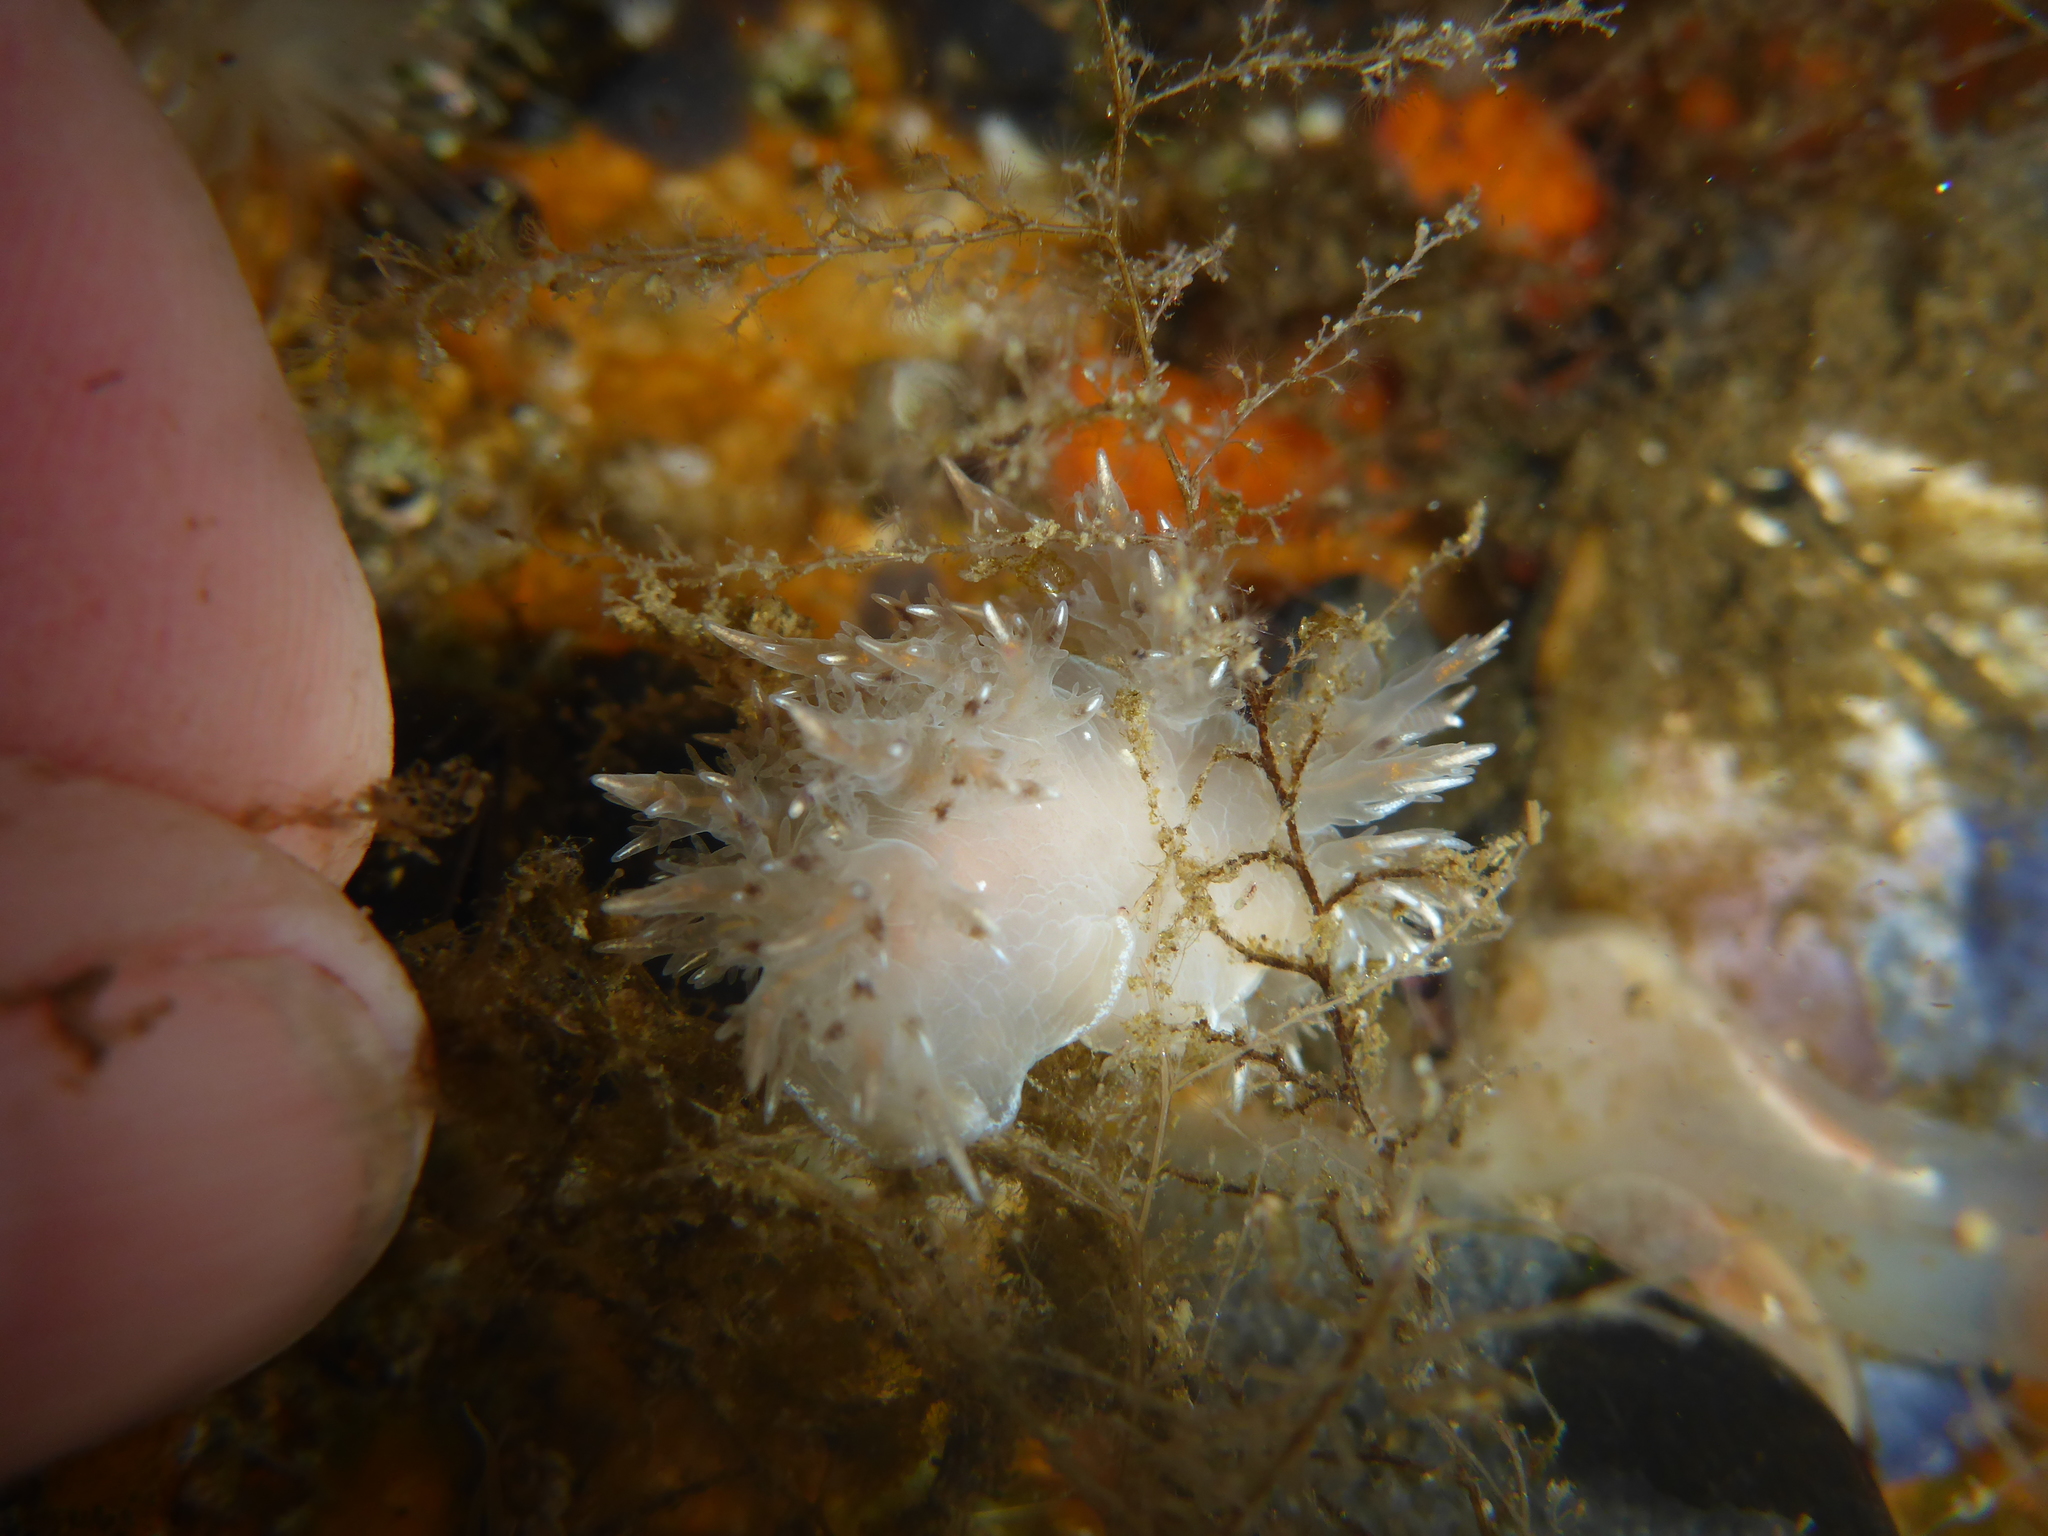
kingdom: Animalia
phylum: Mollusca
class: Gastropoda
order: Nudibranchia
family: Dendronotidae
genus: Dendronotus
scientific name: Dendronotus iris
